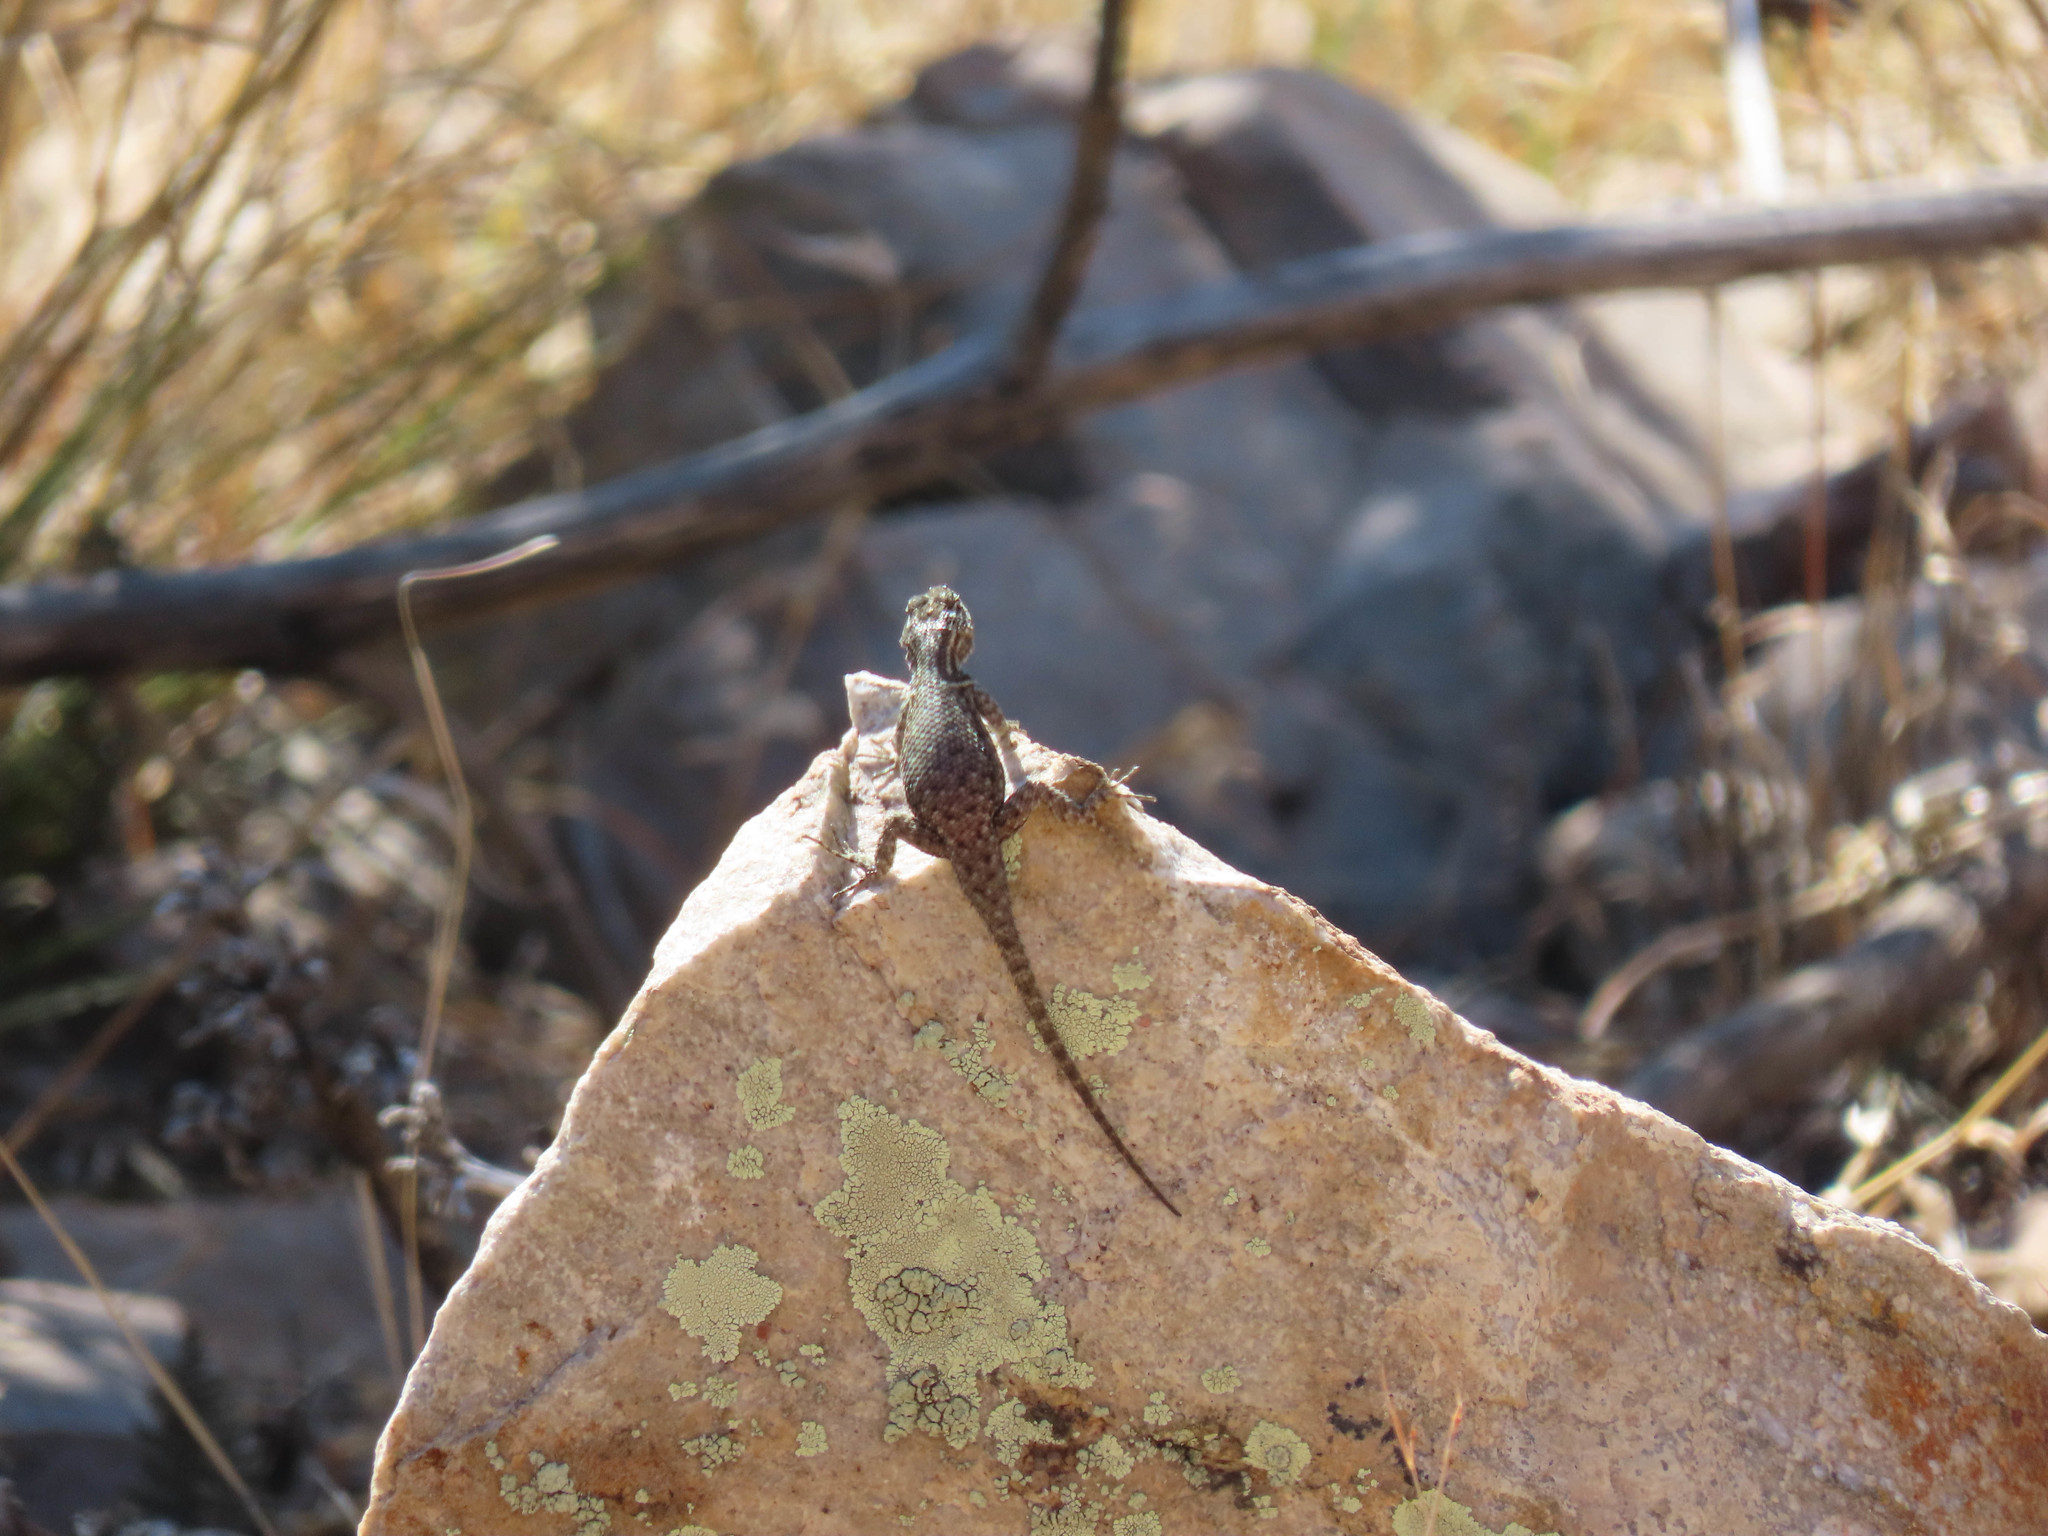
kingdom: Animalia
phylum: Chordata
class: Squamata
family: Phrynosomatidae
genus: Sceloporus
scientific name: Sceloporus jarrovii
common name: Yarrow's spiny lizard
